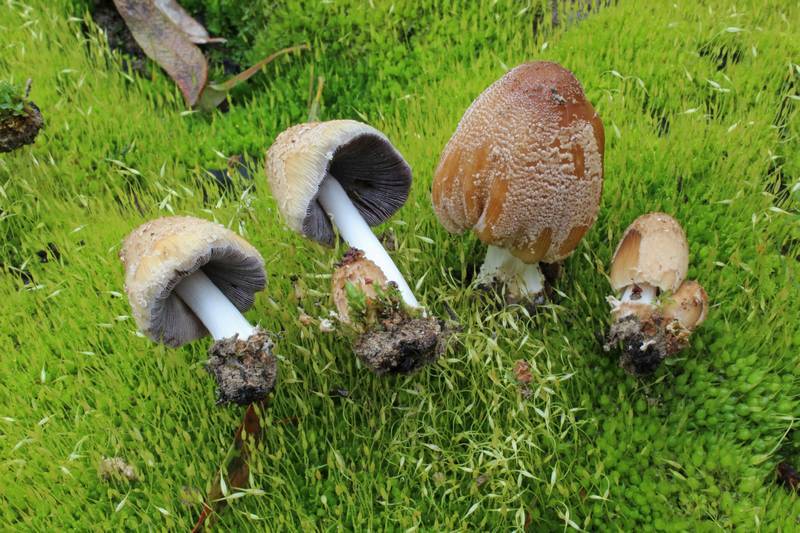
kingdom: Fungi
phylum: Basidiomycota
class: Agaricomycetes
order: Agaricales
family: Psathyrellaceae
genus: Coprinellus
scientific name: Coprinellus bipellis
